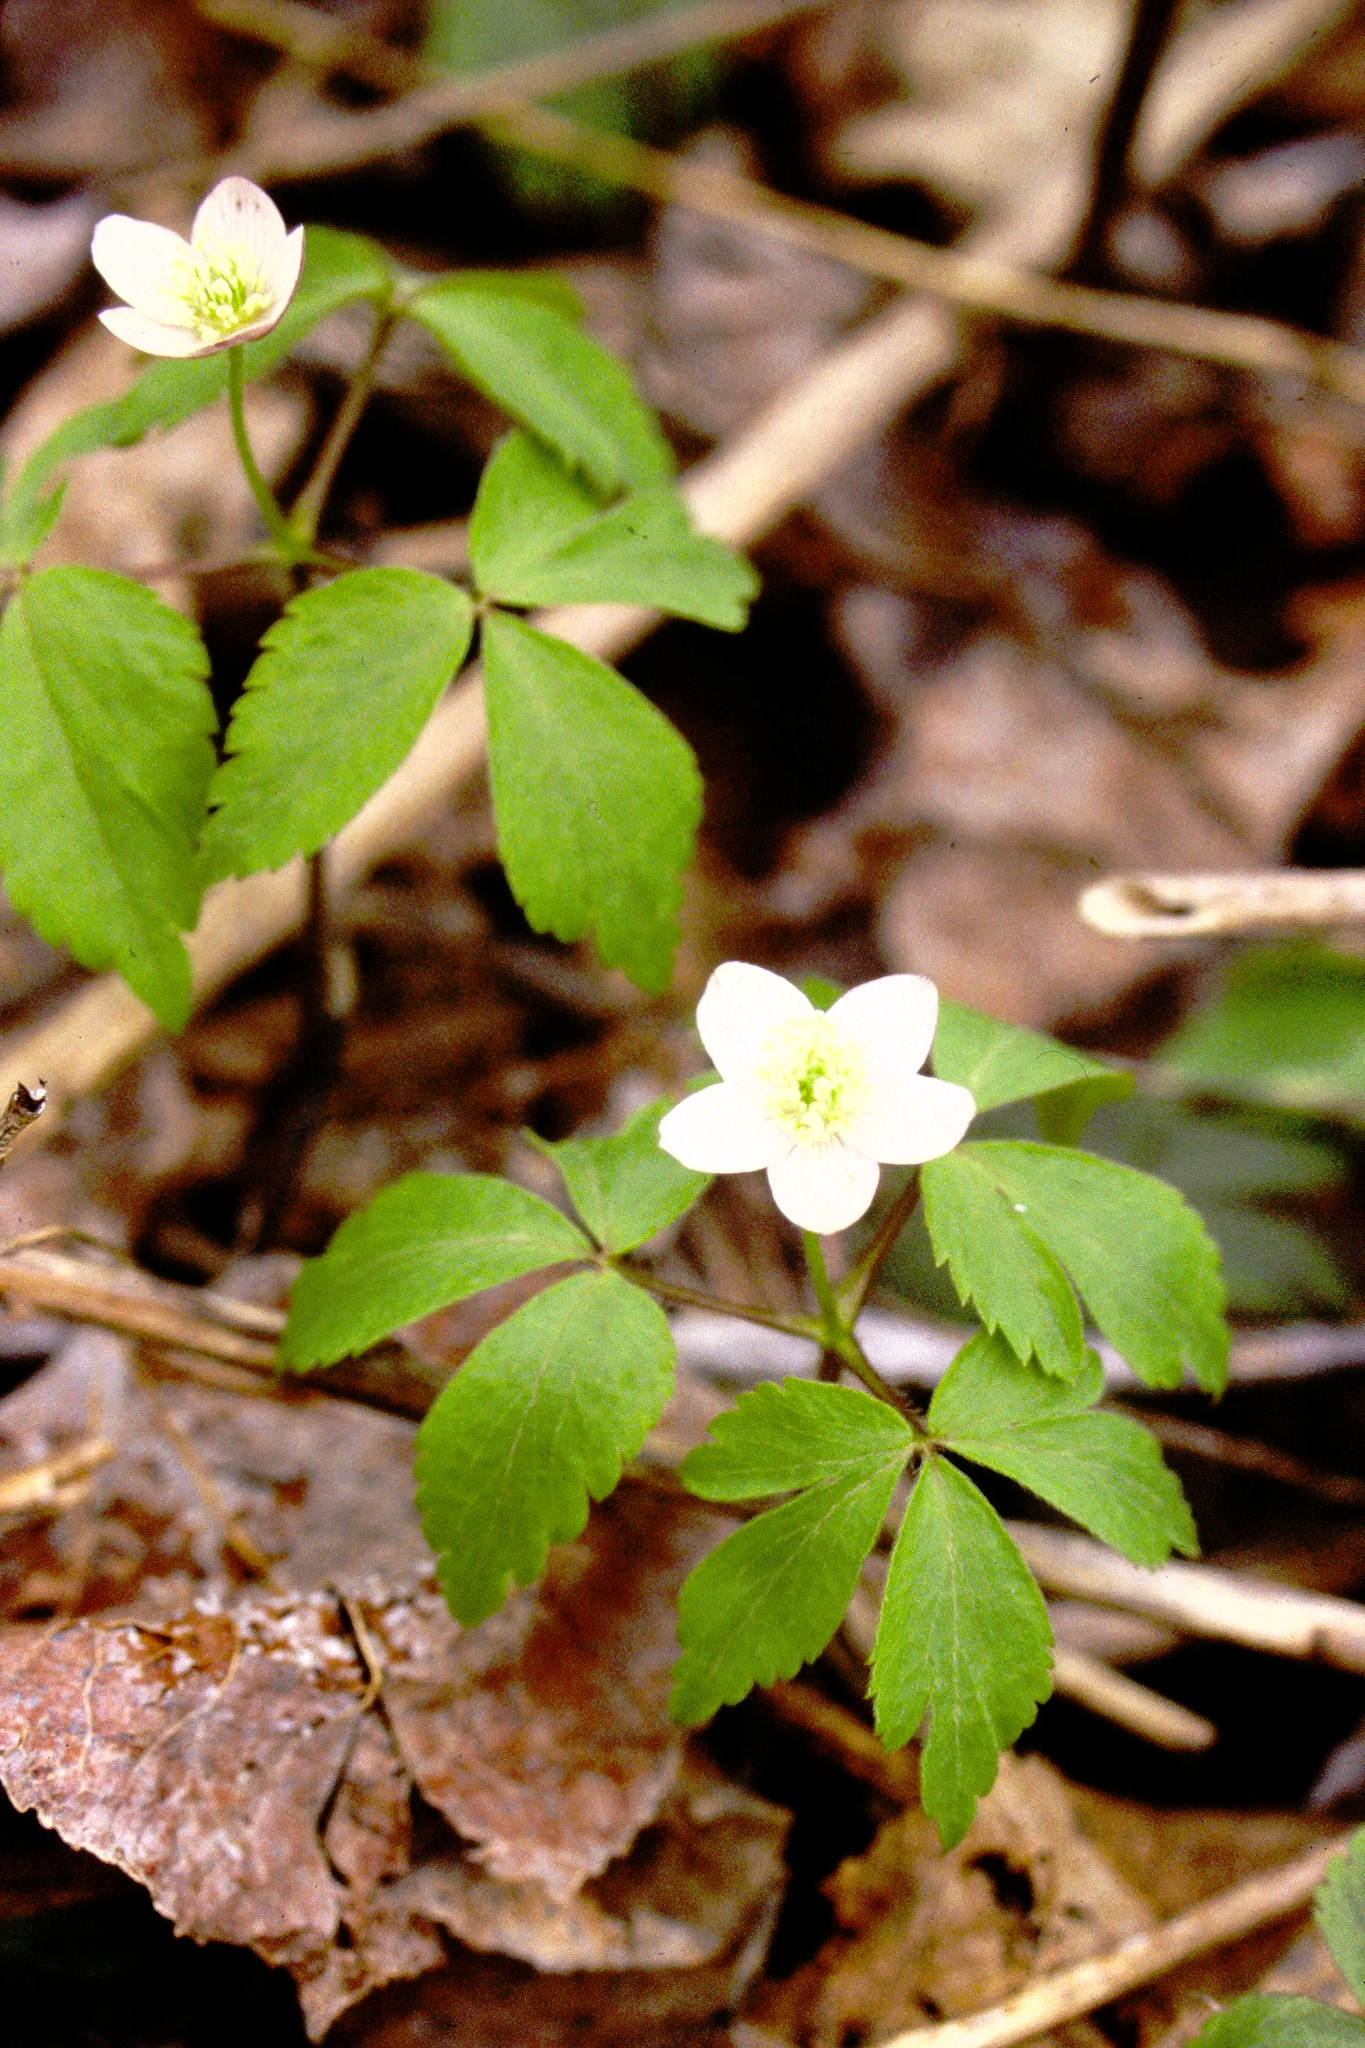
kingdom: Plantae
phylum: Tracheophyta
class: Magnoliopsida
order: Ranunculales
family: Ranunculaceae
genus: Anemone
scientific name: Anemone quinquefolia
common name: Wood anemone
